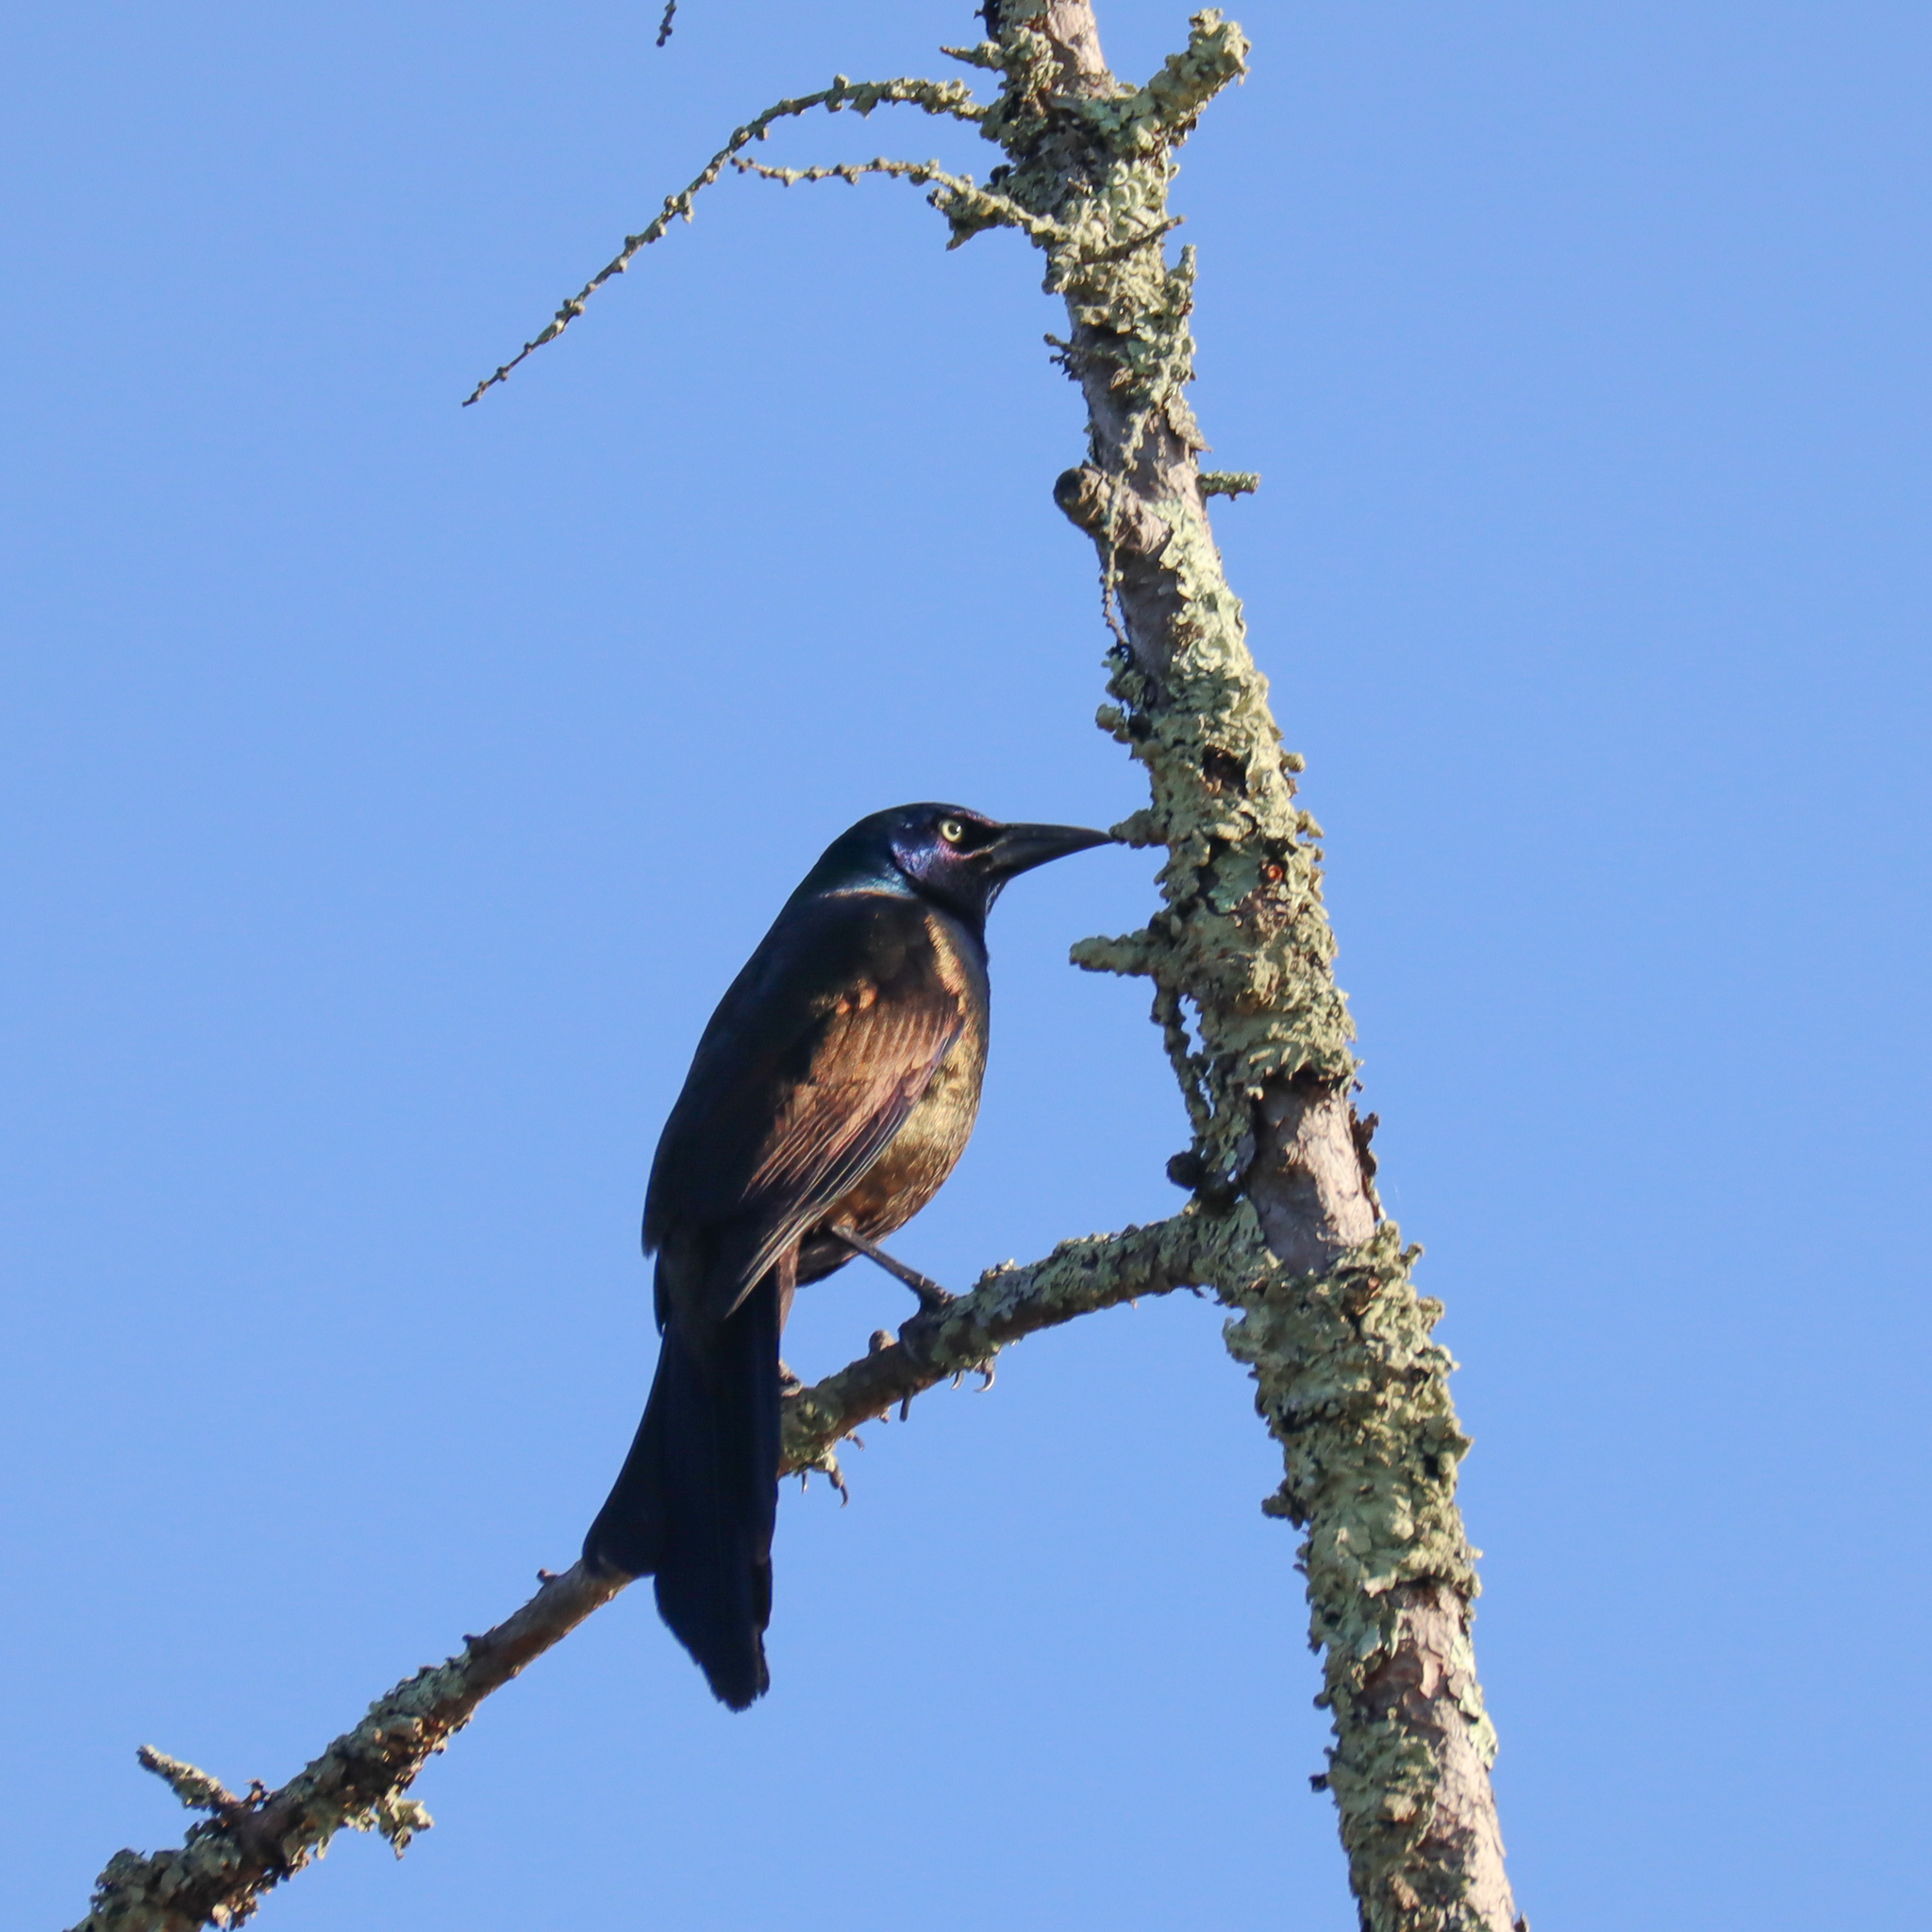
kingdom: Animalia
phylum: Chordata
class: Aves
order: Passeriformes
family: Icteridae
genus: Quiscalus
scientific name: Quiscalus quiscula
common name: Common grackle
